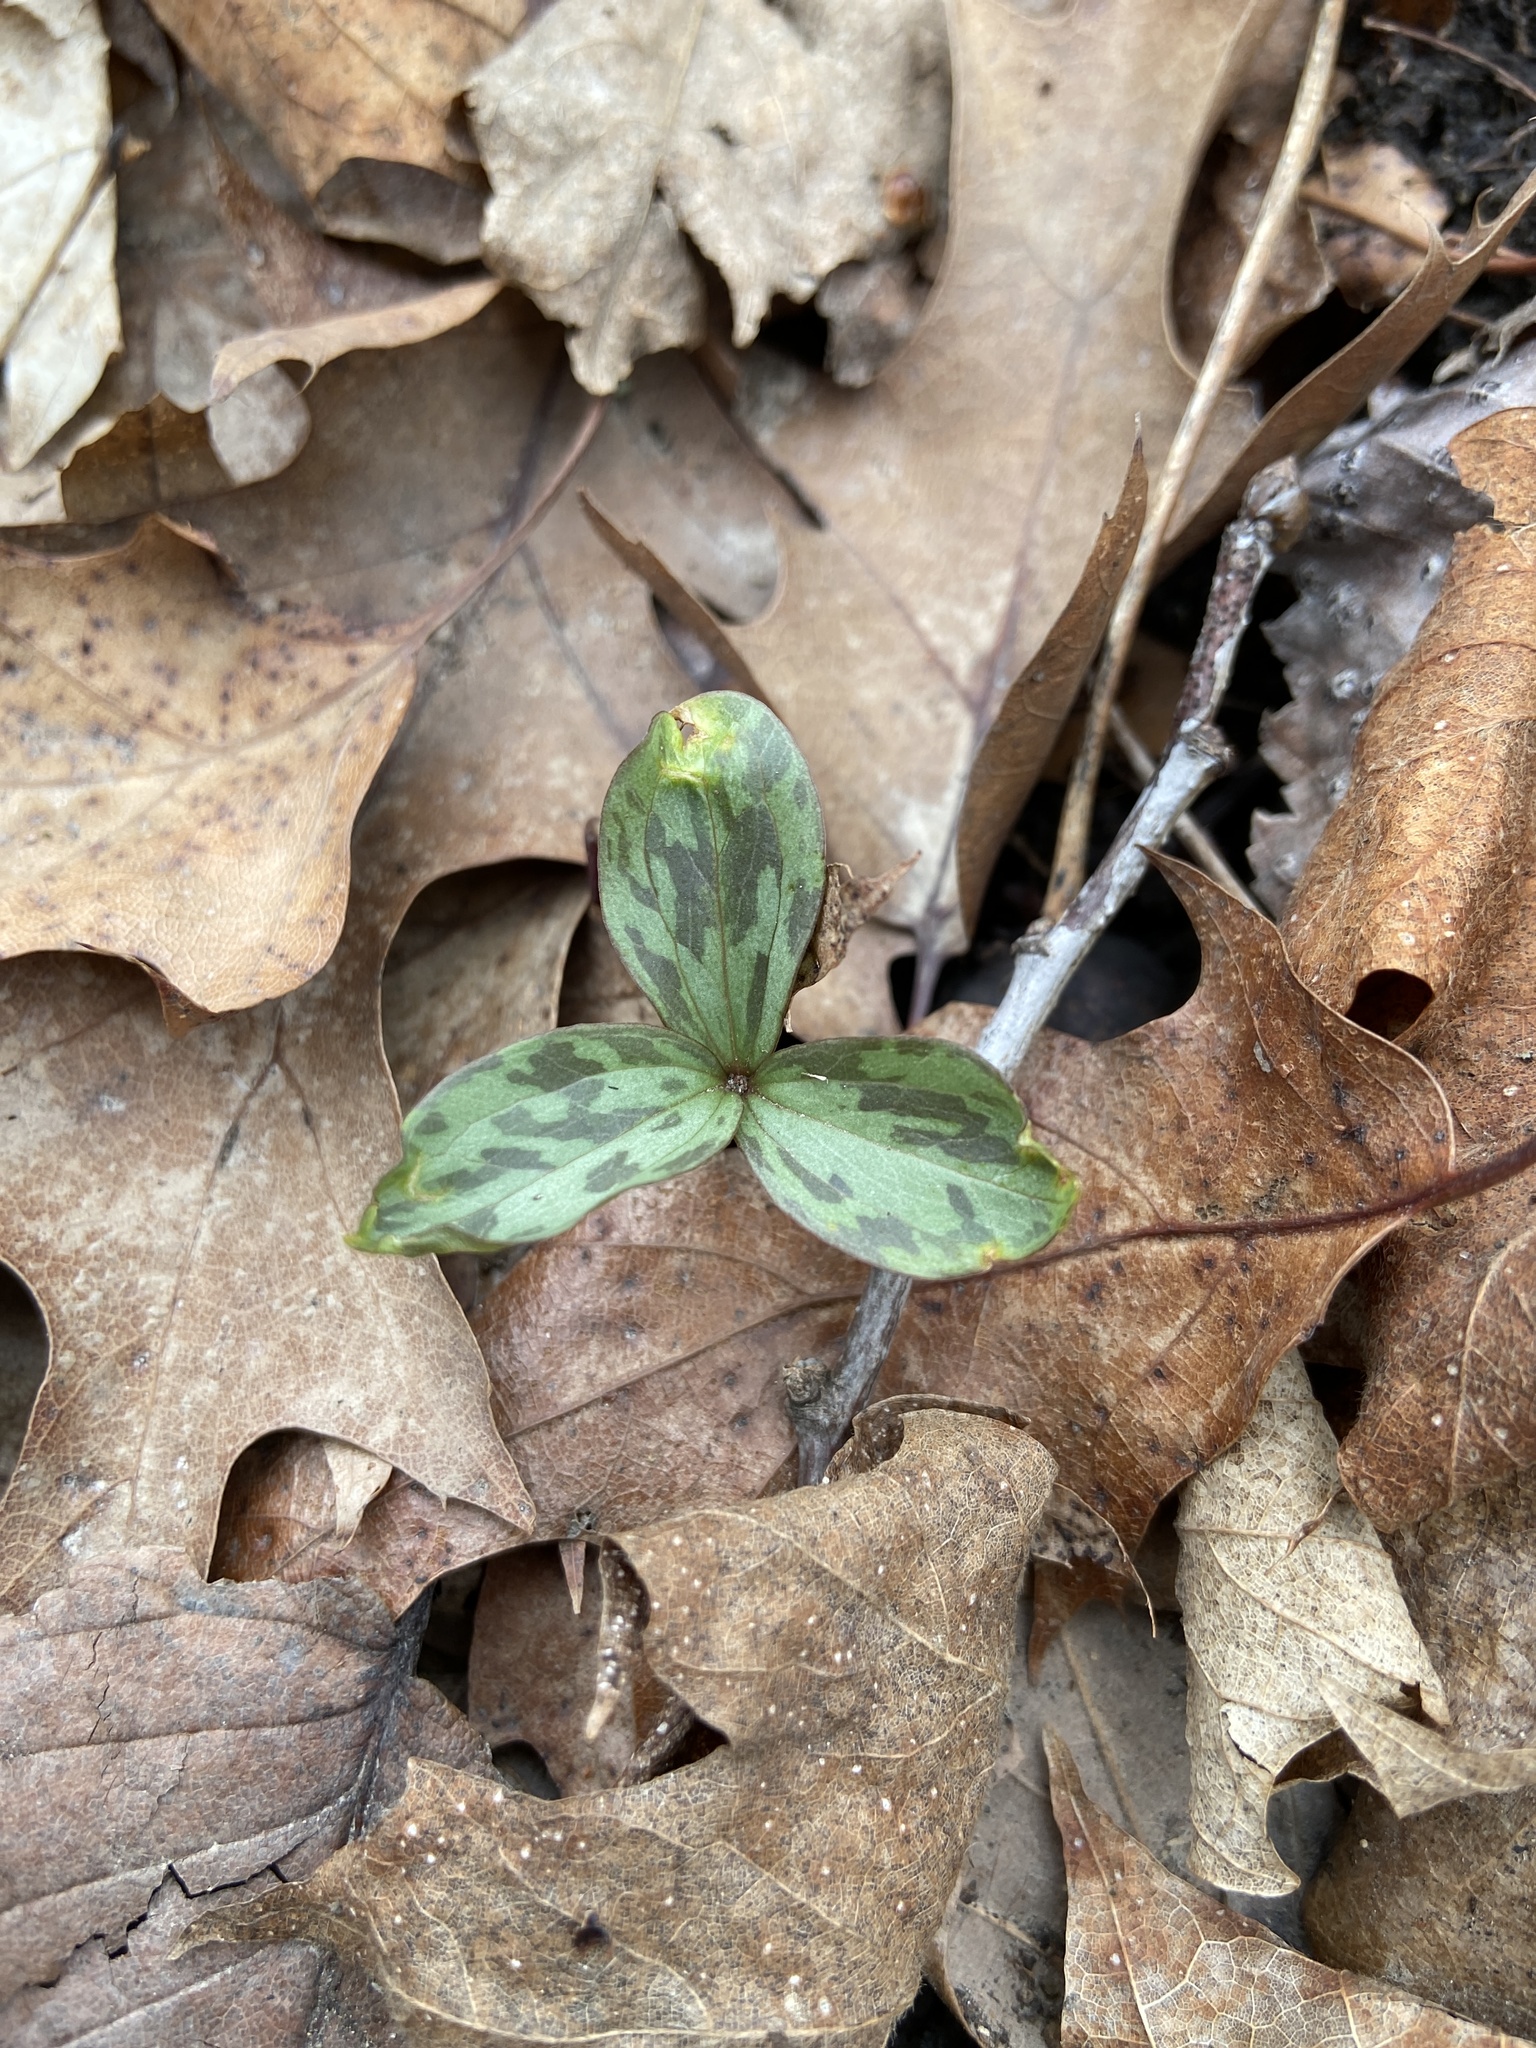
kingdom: Plantae
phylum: Tracheophyta
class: Liliopsida
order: Liliales
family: Melanthiaceae
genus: Trillium
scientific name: Trillium recurvatum
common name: Bloody butcher
